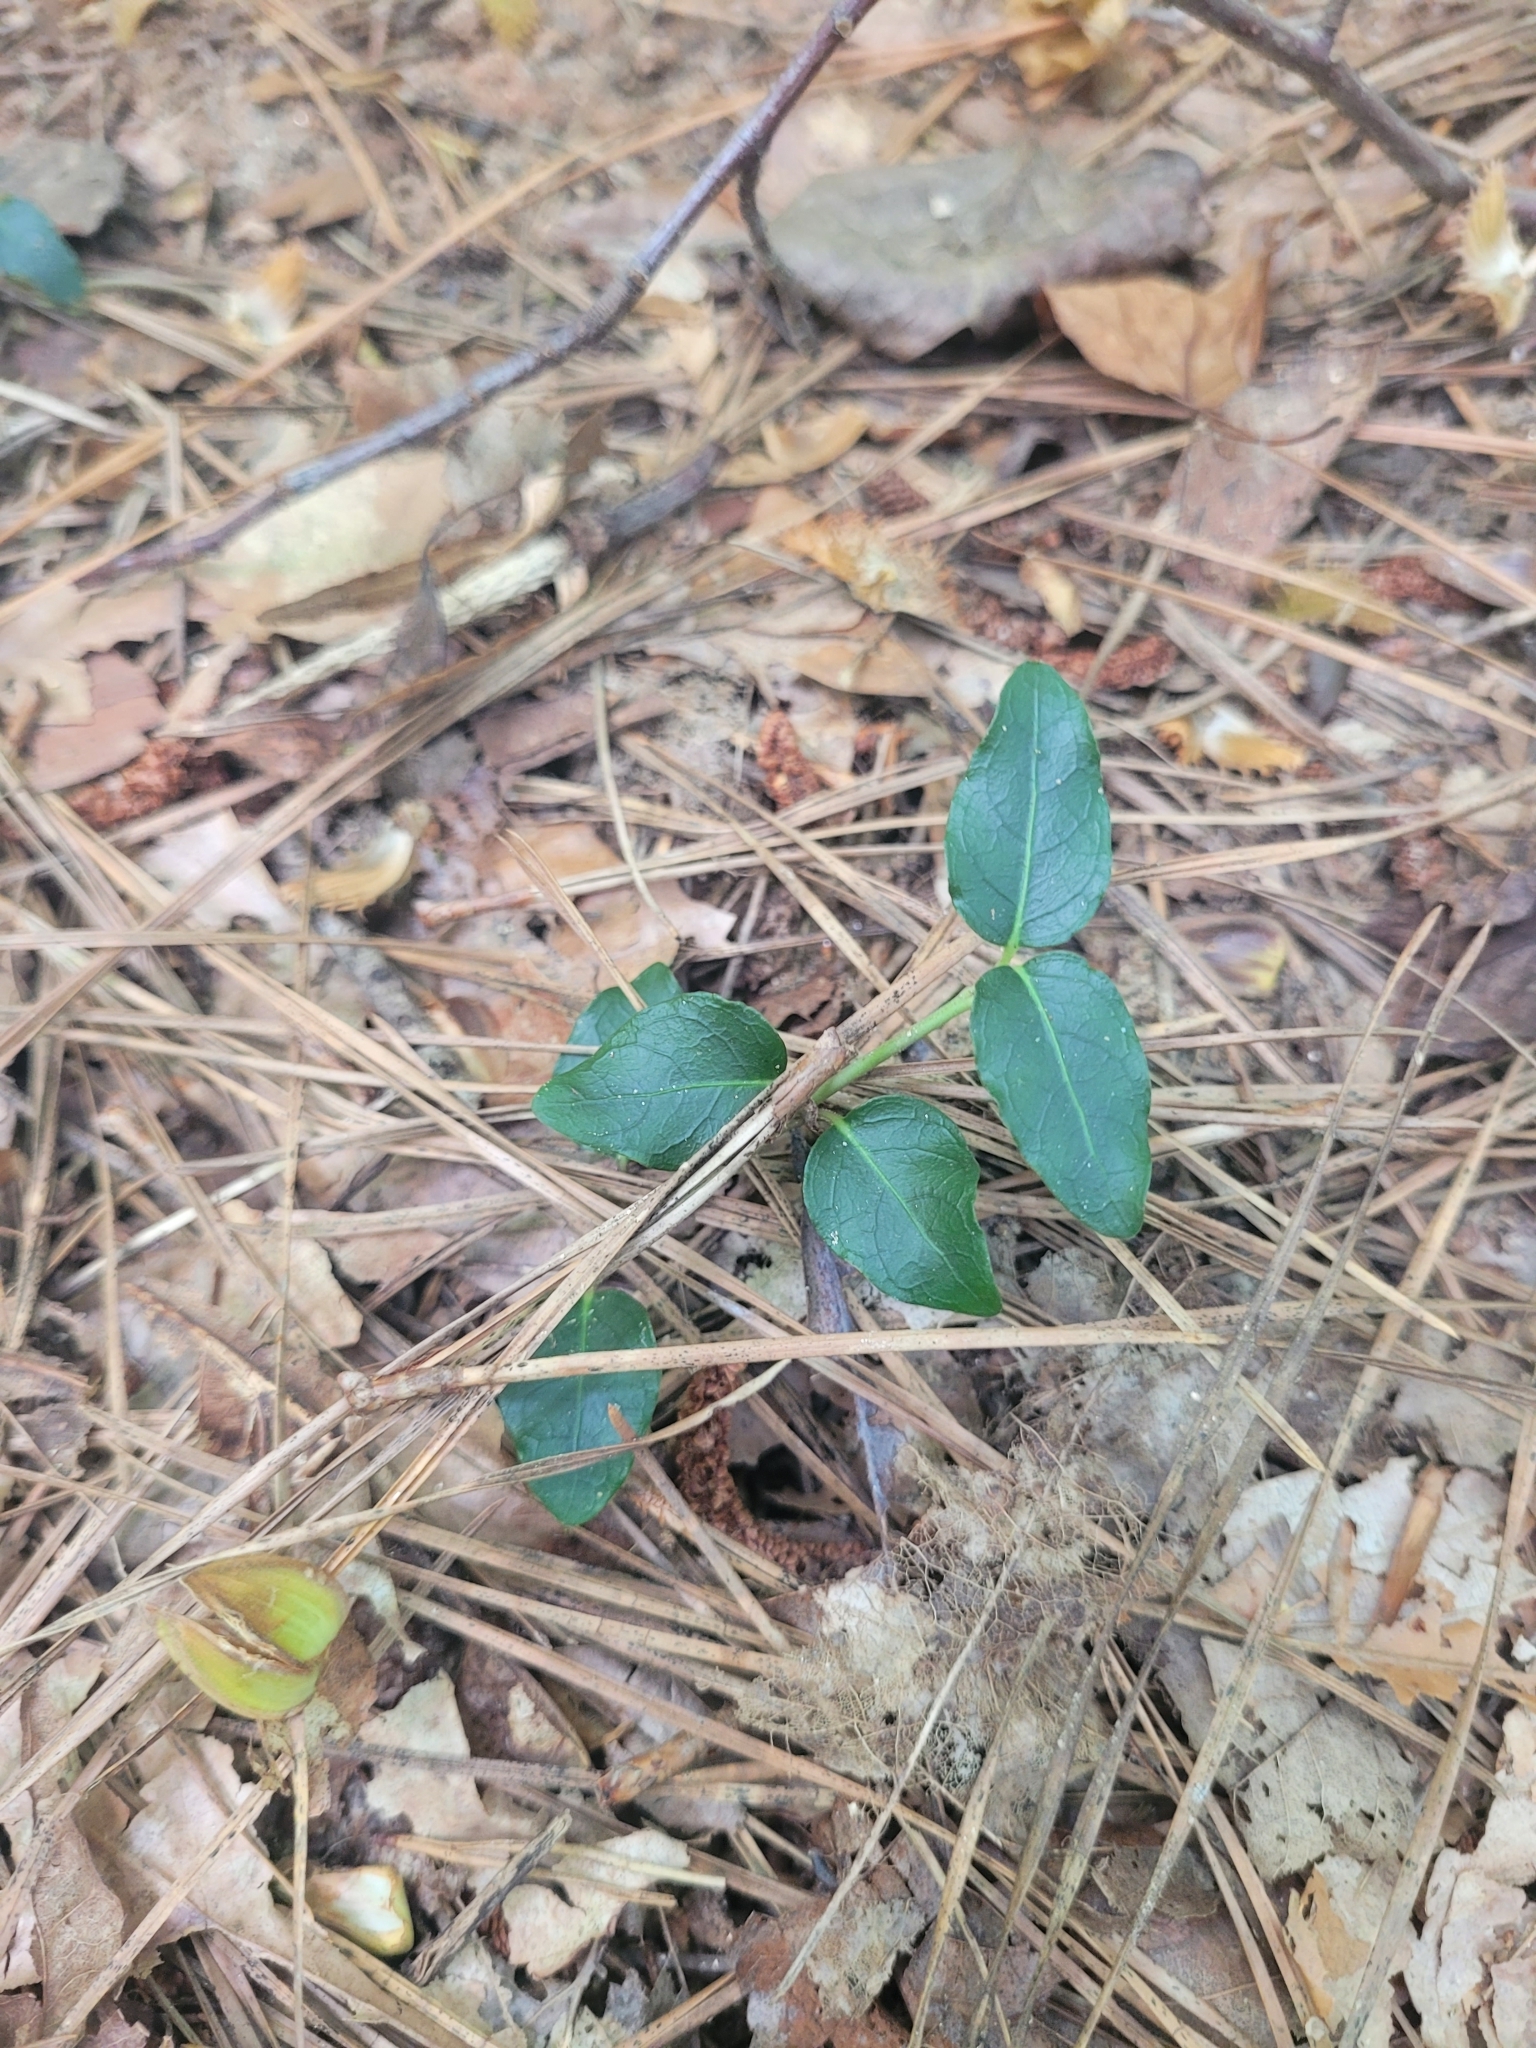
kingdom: Plantae
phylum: Tracheophyta
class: Magnoliopsida
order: Gentianales
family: Rubiaceae
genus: Mitchella
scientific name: Mitchella repens
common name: Partridge-berry
